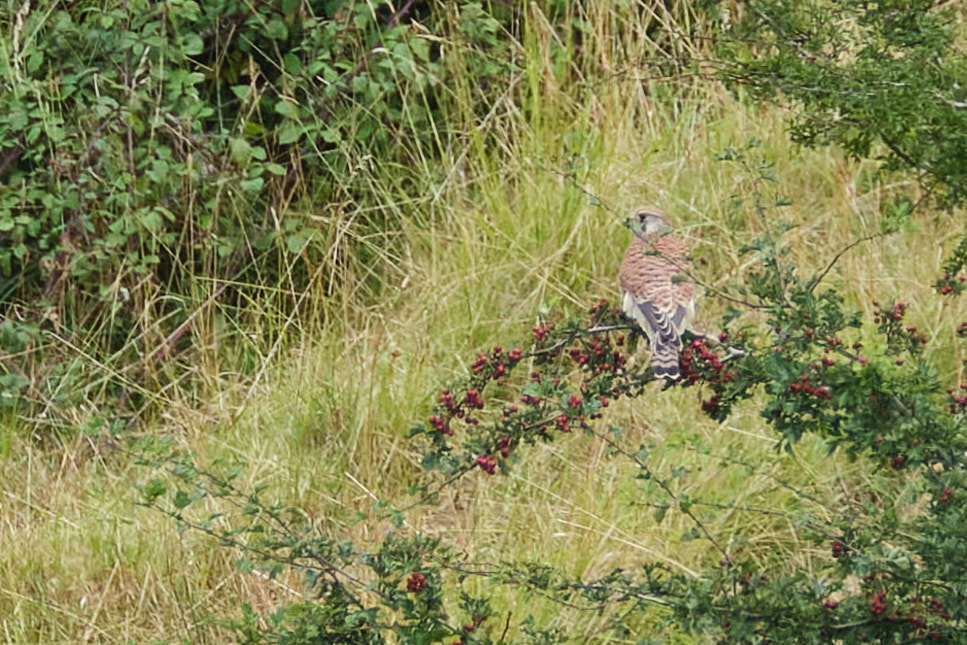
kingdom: Animalia
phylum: Chordata
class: Aves
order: Falconiformes
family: Falconidae
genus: Falco
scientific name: Falco tinnunculus
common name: Common kestrel
